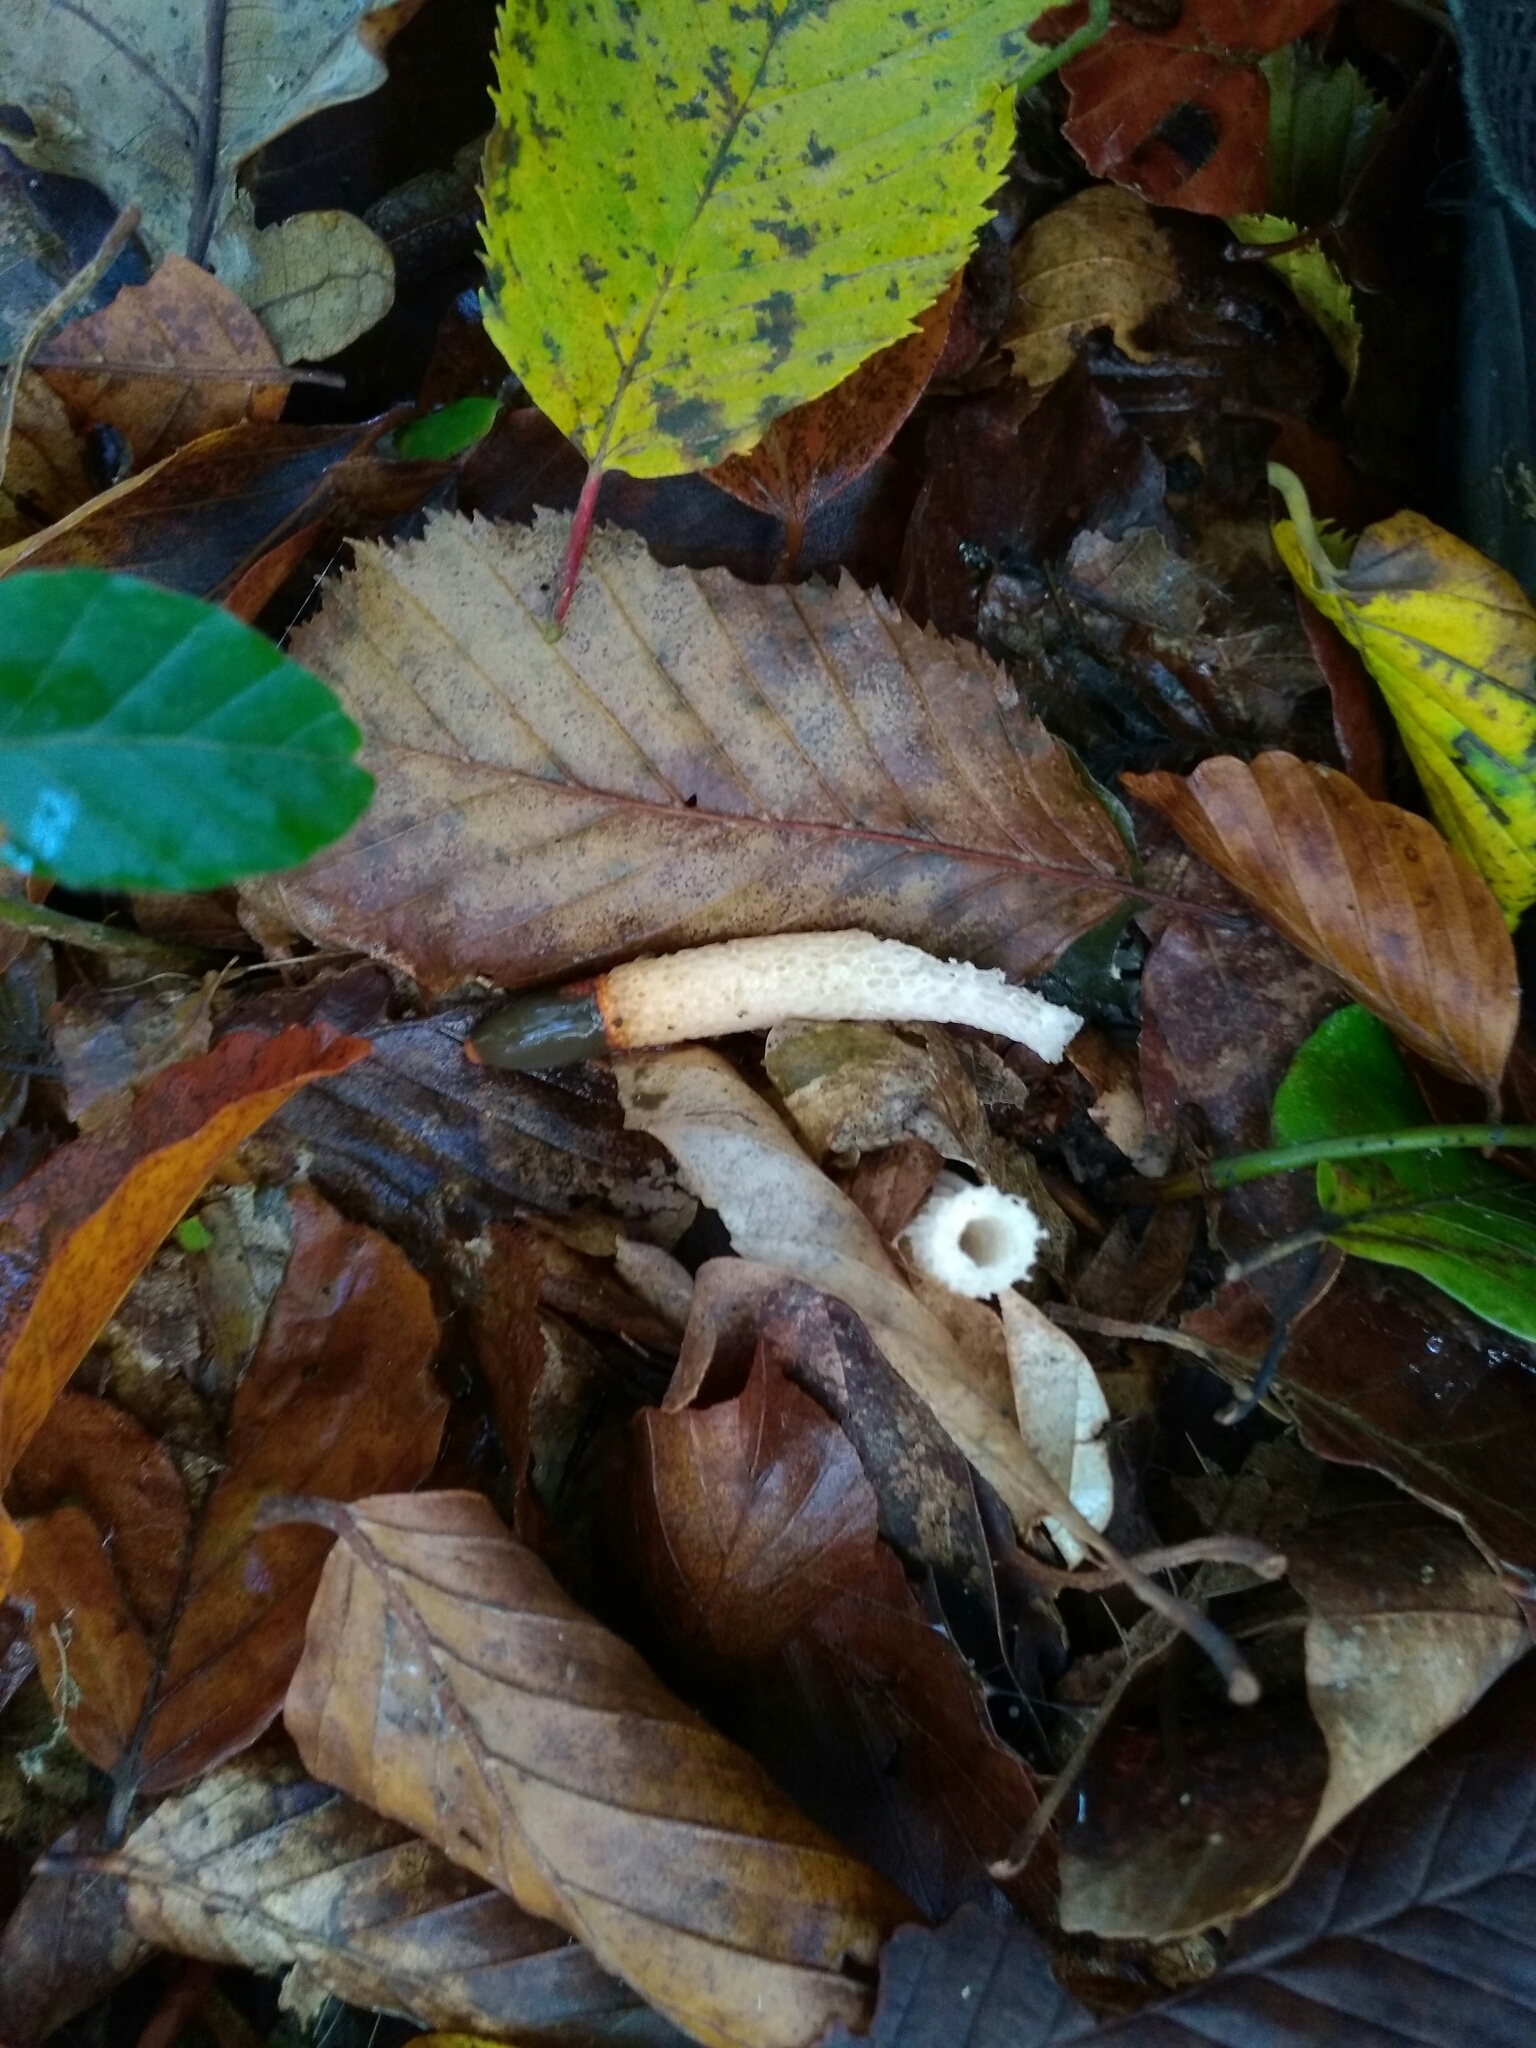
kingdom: Fungi
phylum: Basidiomycota
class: Agaricomycetes
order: Phallales
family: Phallaceae
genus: Mutinus
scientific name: Mutinus caninus
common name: Dog stinkhorn
